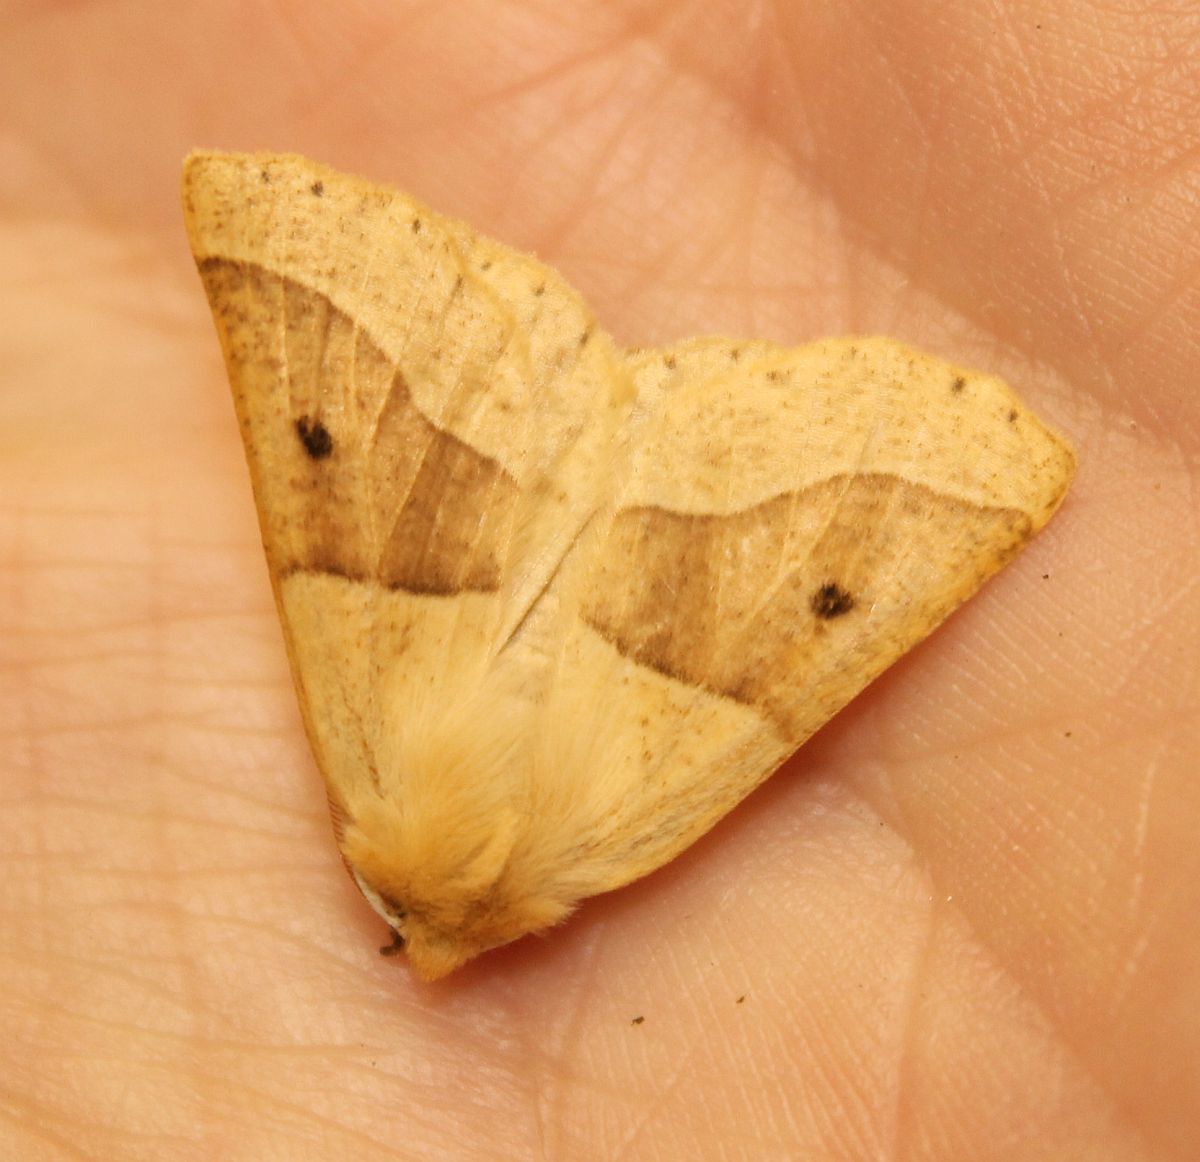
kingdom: Animalia
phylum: Arthropoda
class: Insecta
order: Lepidoptera
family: Geometridae
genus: Crocallis
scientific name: Crocallis elinguaria
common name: Scalloped oak
